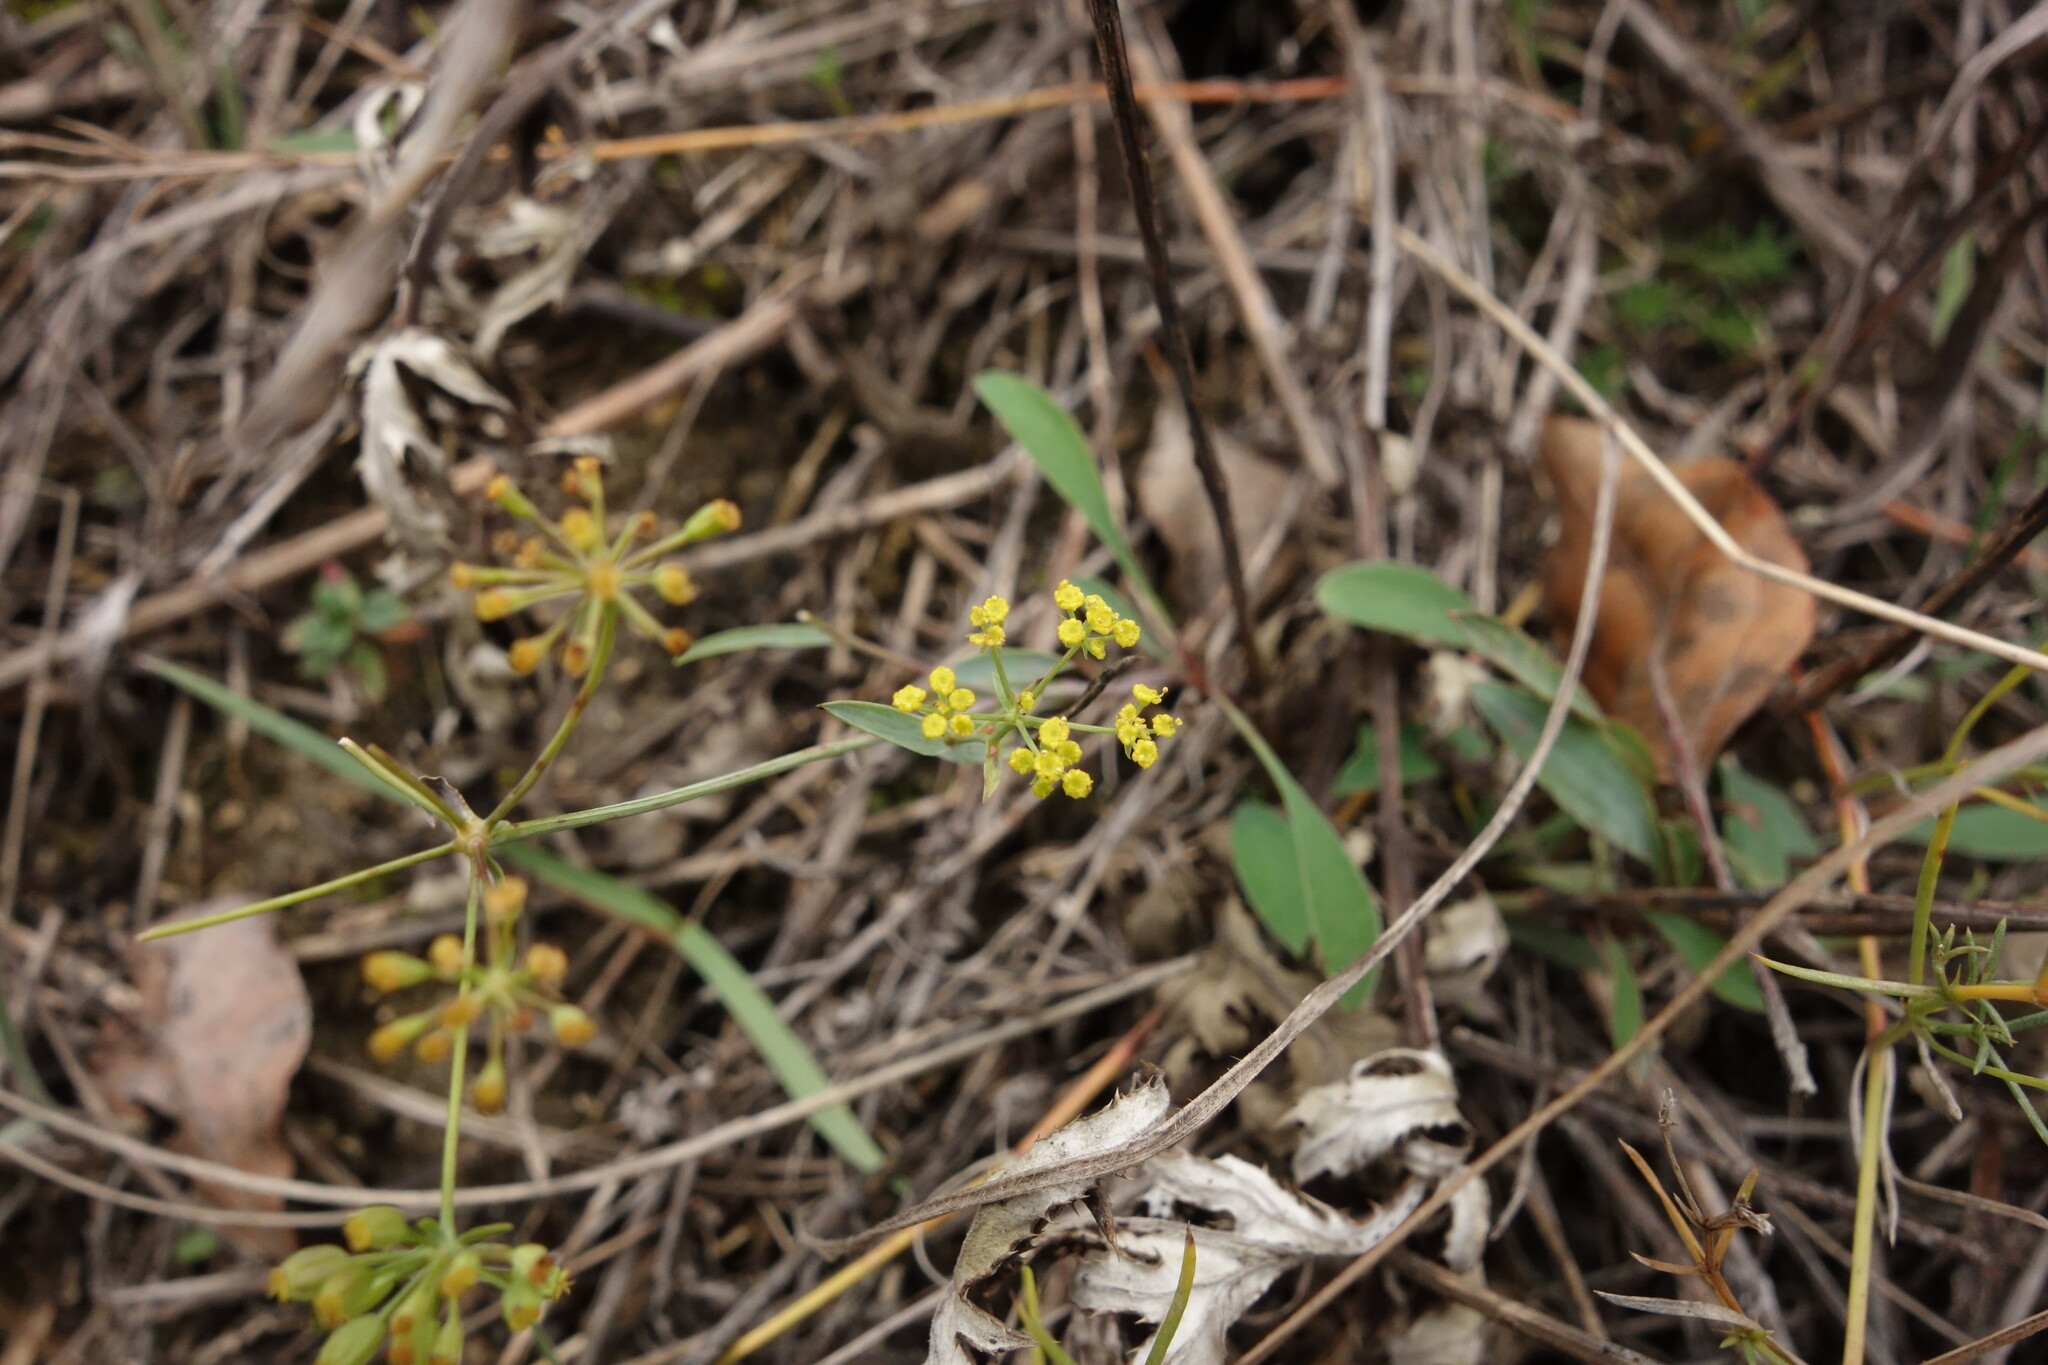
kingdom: Plantae
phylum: Tracheophyta
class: Magnoliopsida
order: Apiales
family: Apiaceae
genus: Bupleurum
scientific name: Bupleurum falcatum
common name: Sickle-leaved hare's-ear
